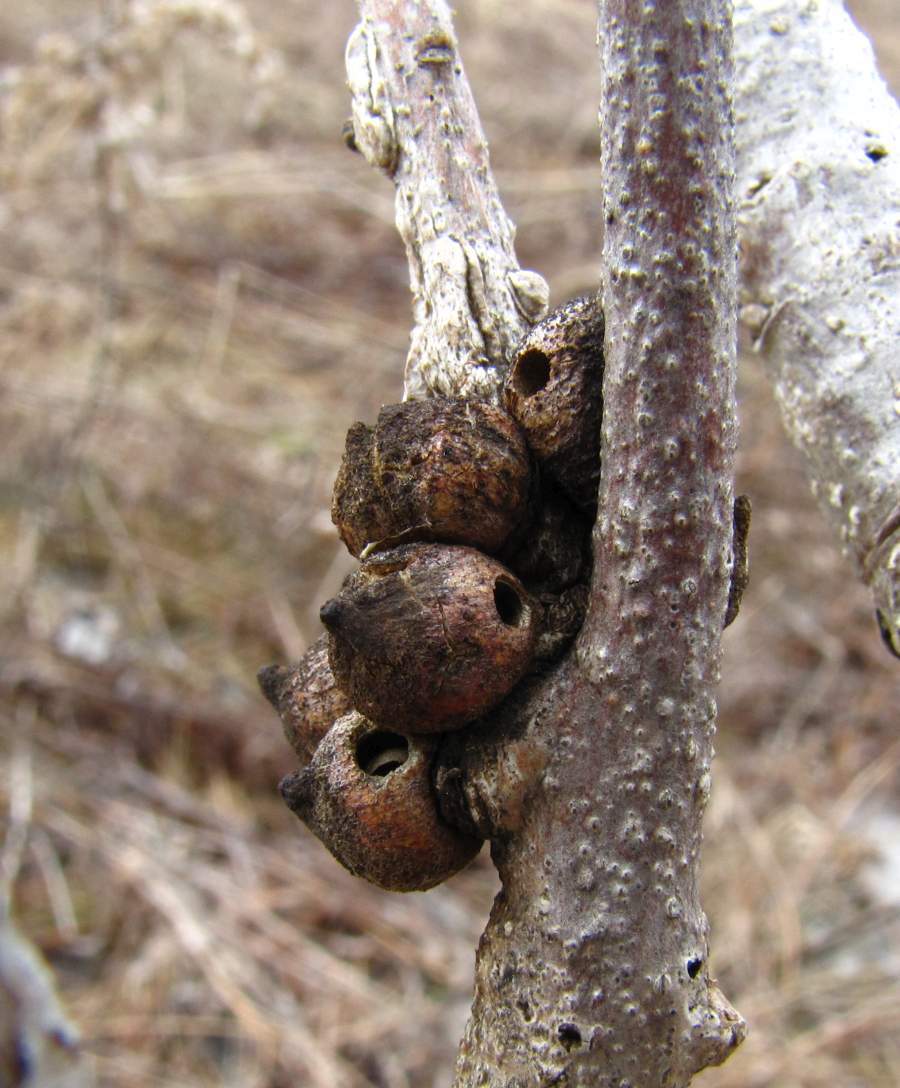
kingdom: Animalia
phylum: Arthropoda
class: Insecta
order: Hymenoptera
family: Cynipidae
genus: Disholcaspis
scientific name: Disholcaspis
